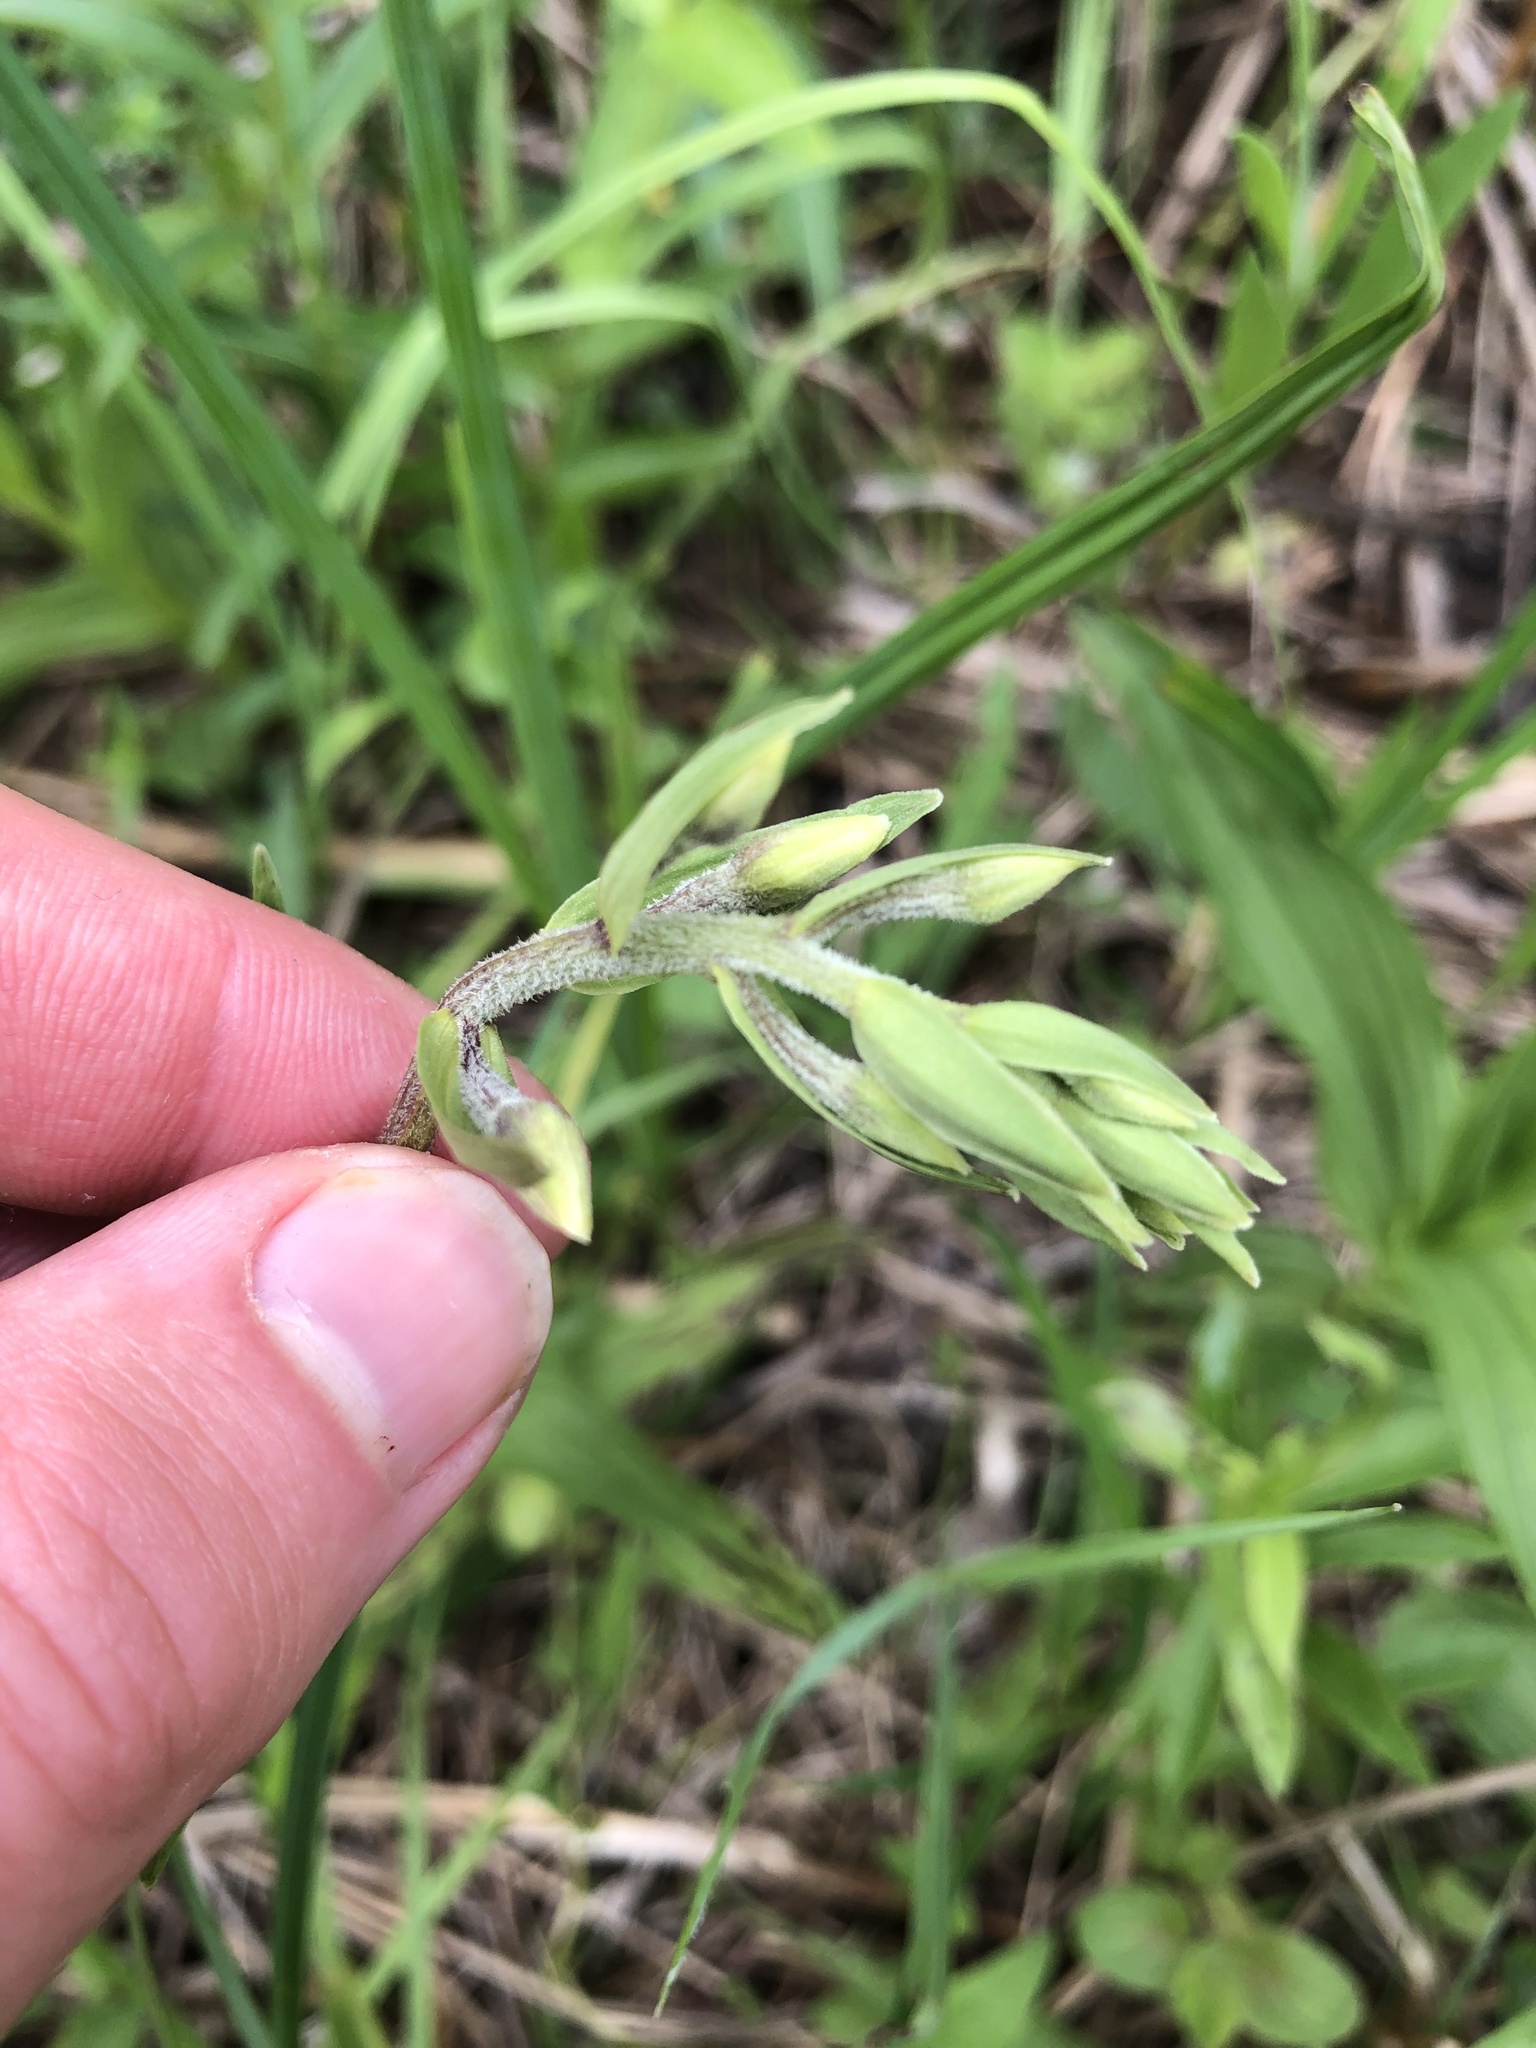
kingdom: Plantae
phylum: Tracheophyta
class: Liliopsida
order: Asparagales
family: Orchidaceae
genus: Epipactis
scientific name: Epipactis palustris
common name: Marsh helleborine
